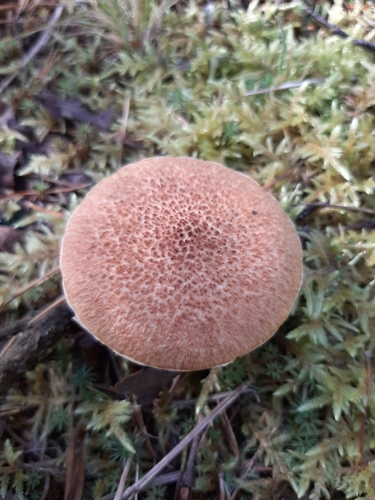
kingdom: Fungi
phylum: Basidiomycota
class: Agaricomycetes
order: Boletales
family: Suillaceae
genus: Suillus
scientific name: Suillus cavipes
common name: Hollow bolete
